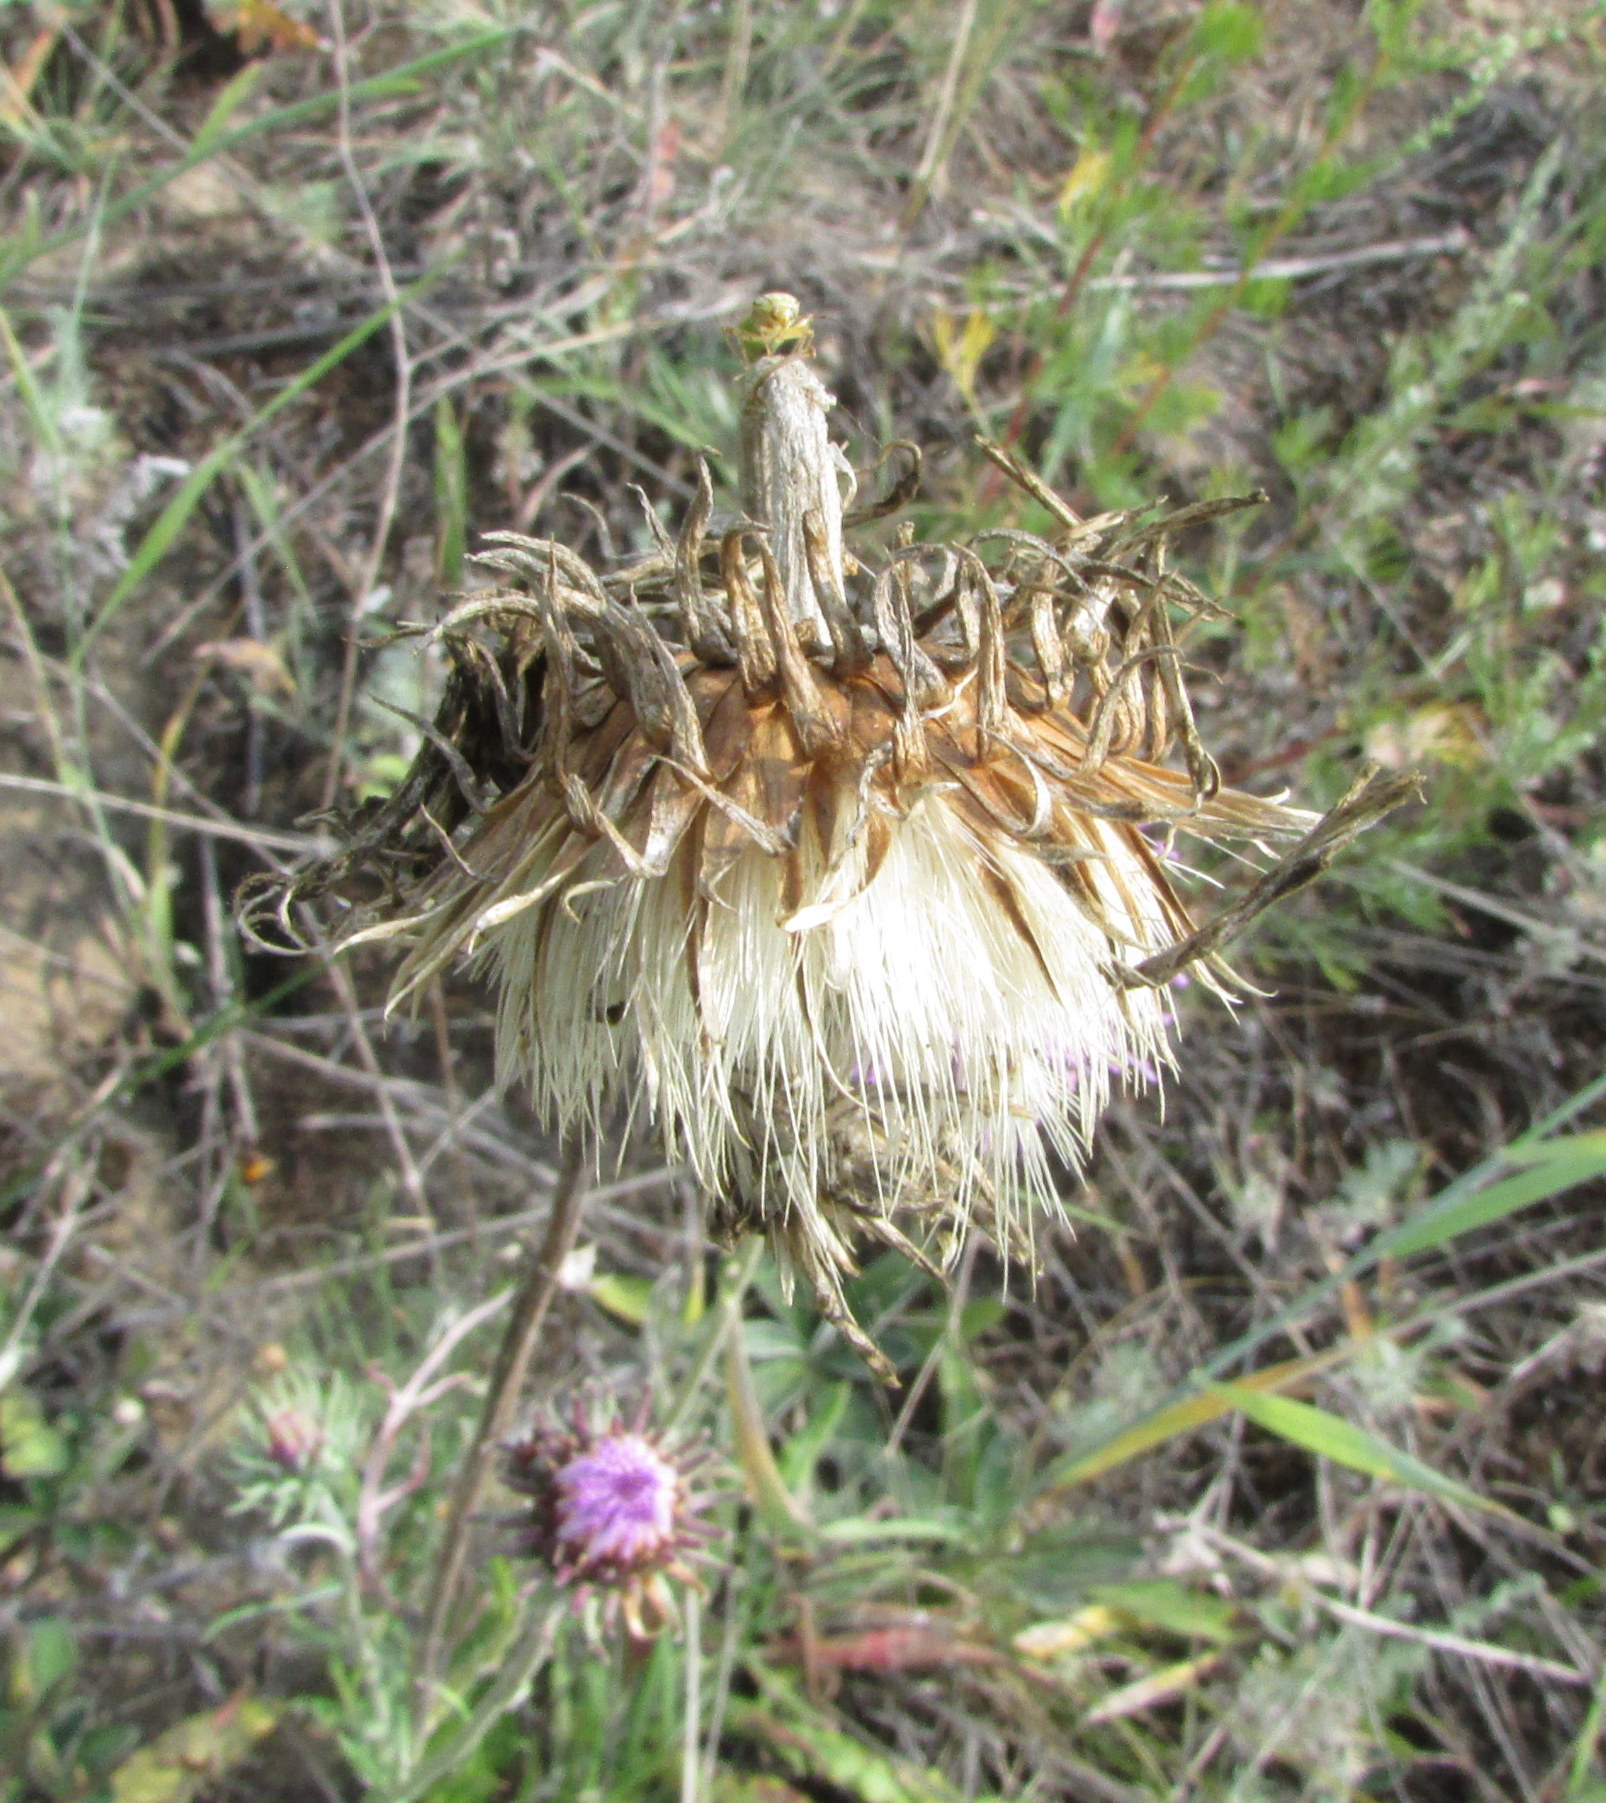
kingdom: Plantae
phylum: Tracheophyta
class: Magnoliopsida
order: Asterales
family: Asteraceae
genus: Jurinea
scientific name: Jurinea cyanoides
